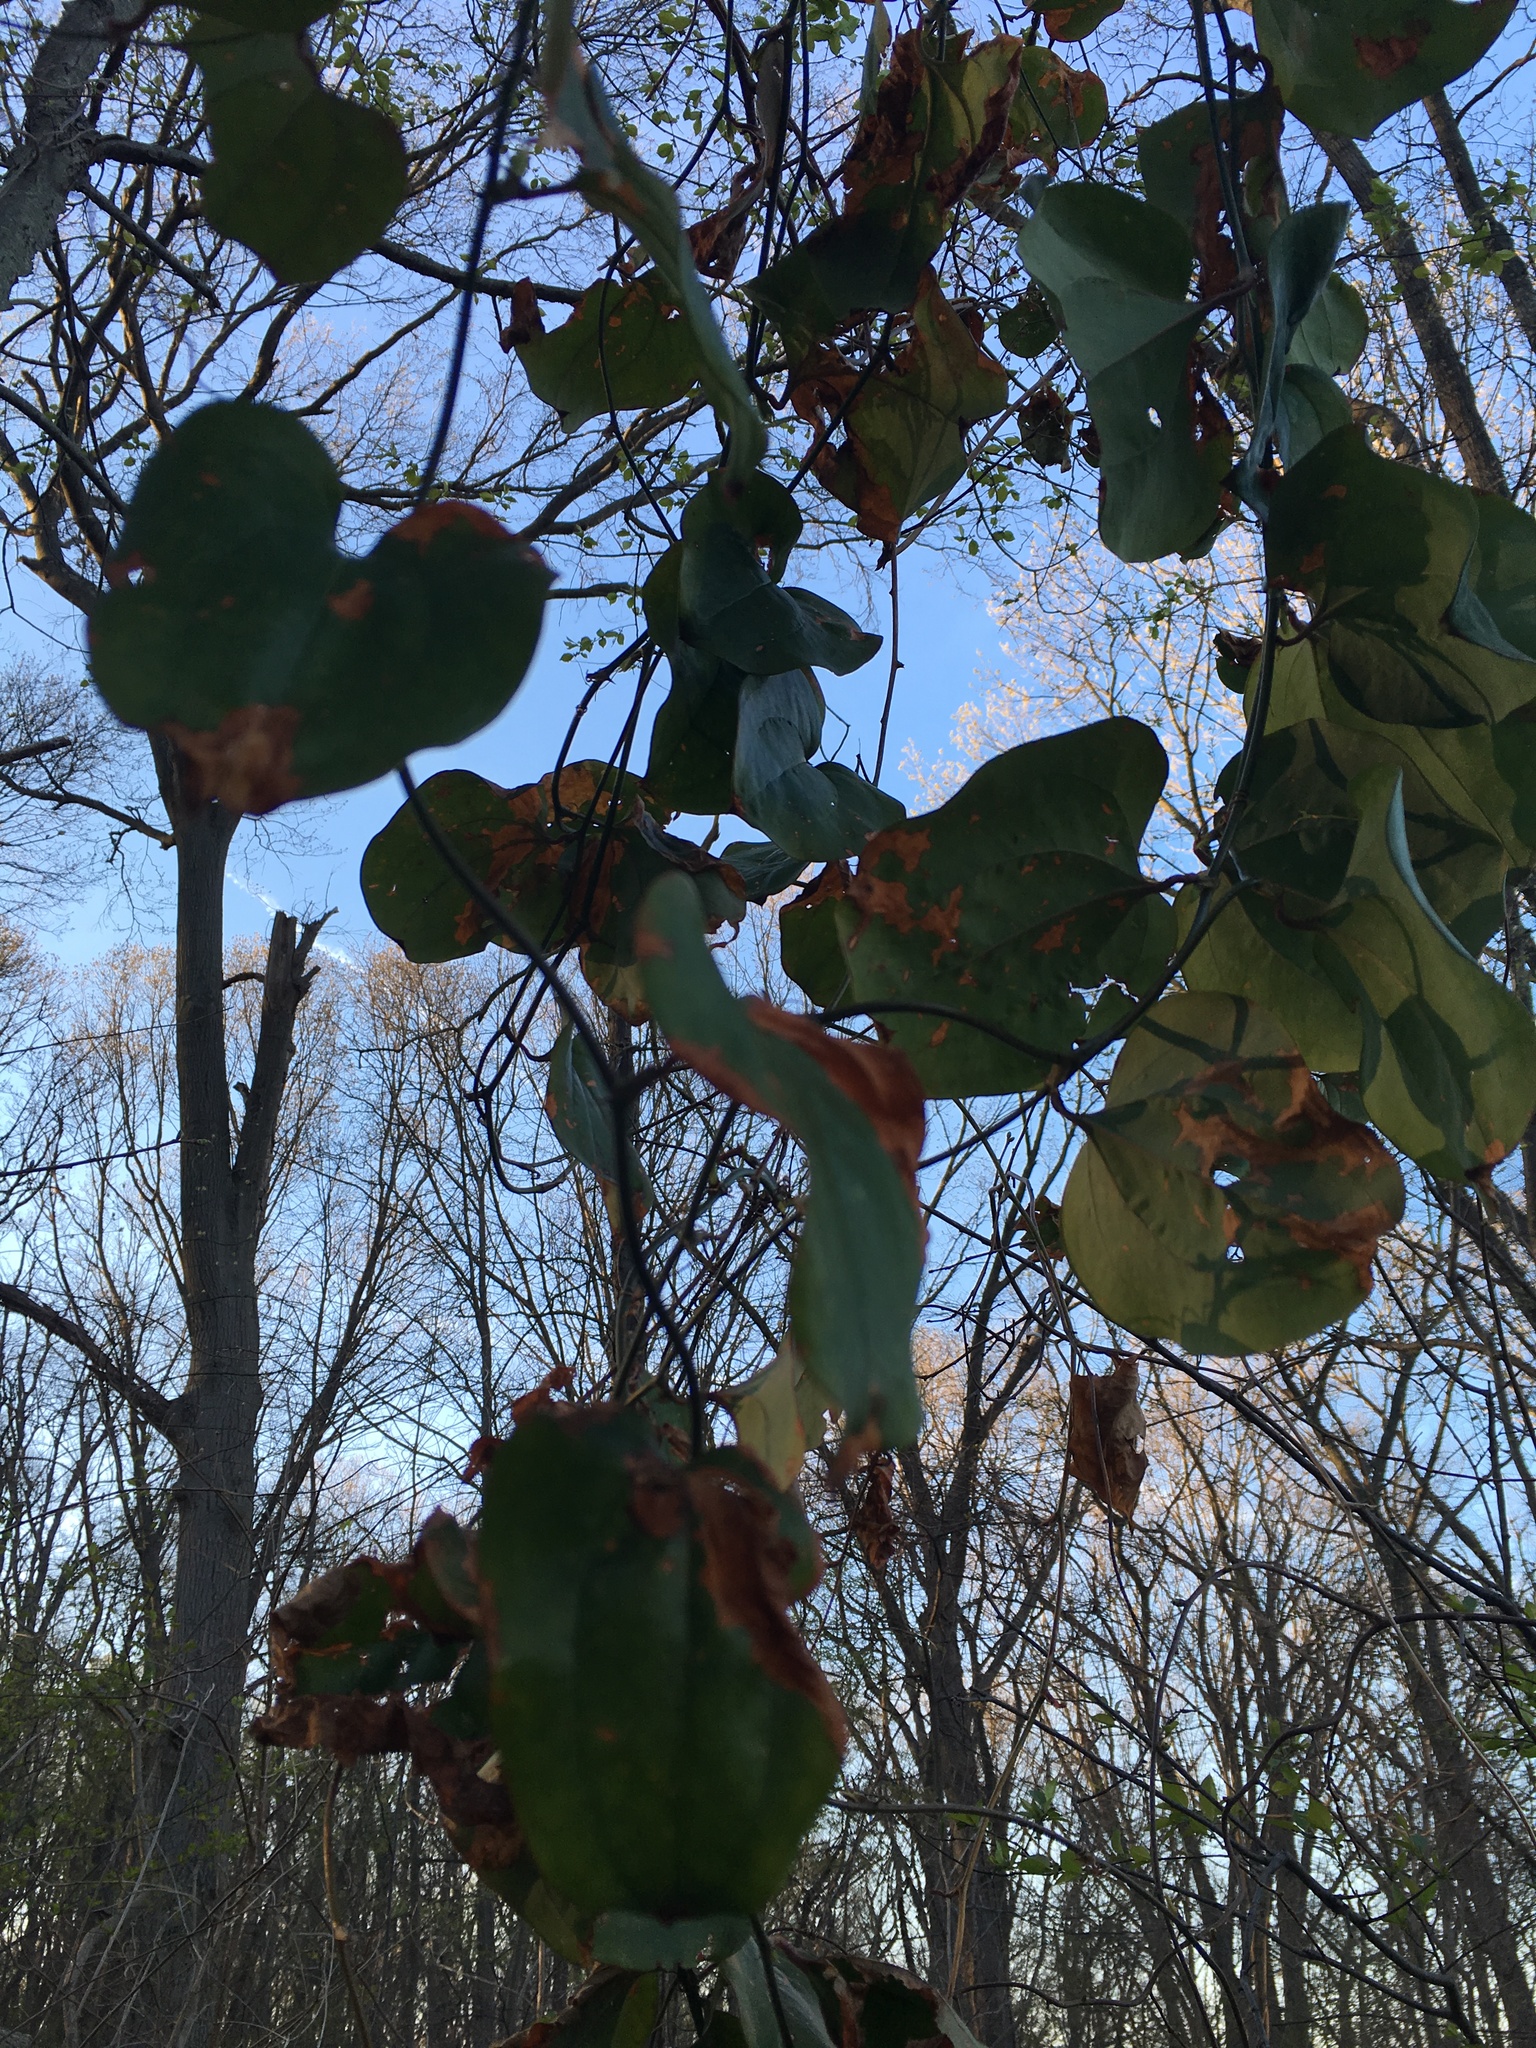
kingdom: Plantae
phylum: Tracheophyta
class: Liliopsida
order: Liliales
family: Smilacaceae
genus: Smilax
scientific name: Smilax rotundifolia
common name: Bullbriar
